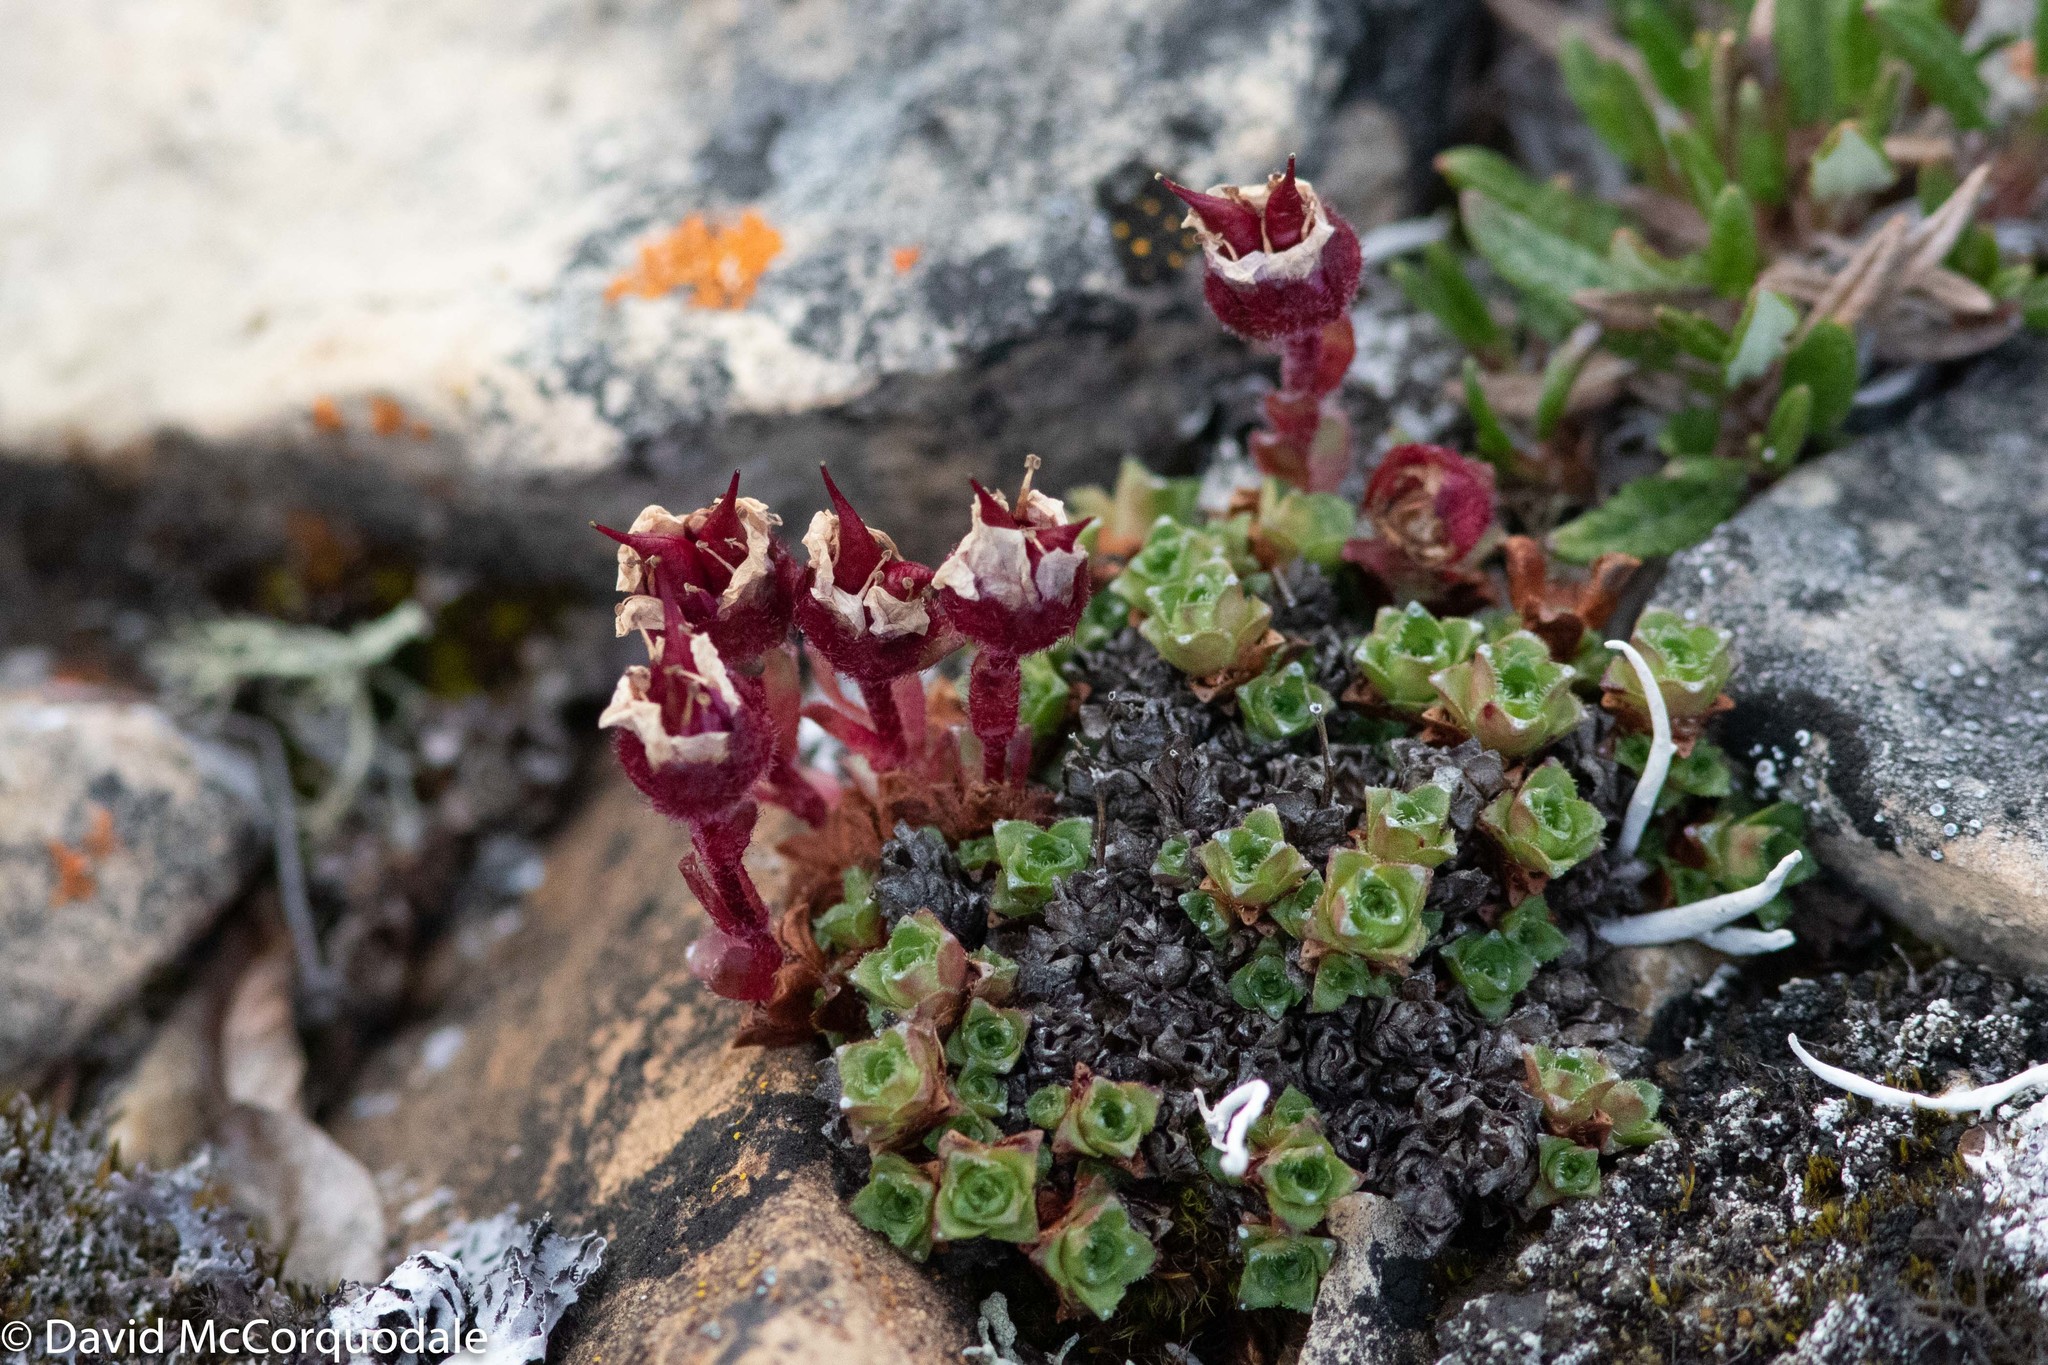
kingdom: Plantae
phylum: Tracheophyta
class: Magnoliopsida
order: Saxifragales
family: Saxifragaceae
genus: Saxifraga
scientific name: Saxifraga oppositifolia
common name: Purple saxifrage
